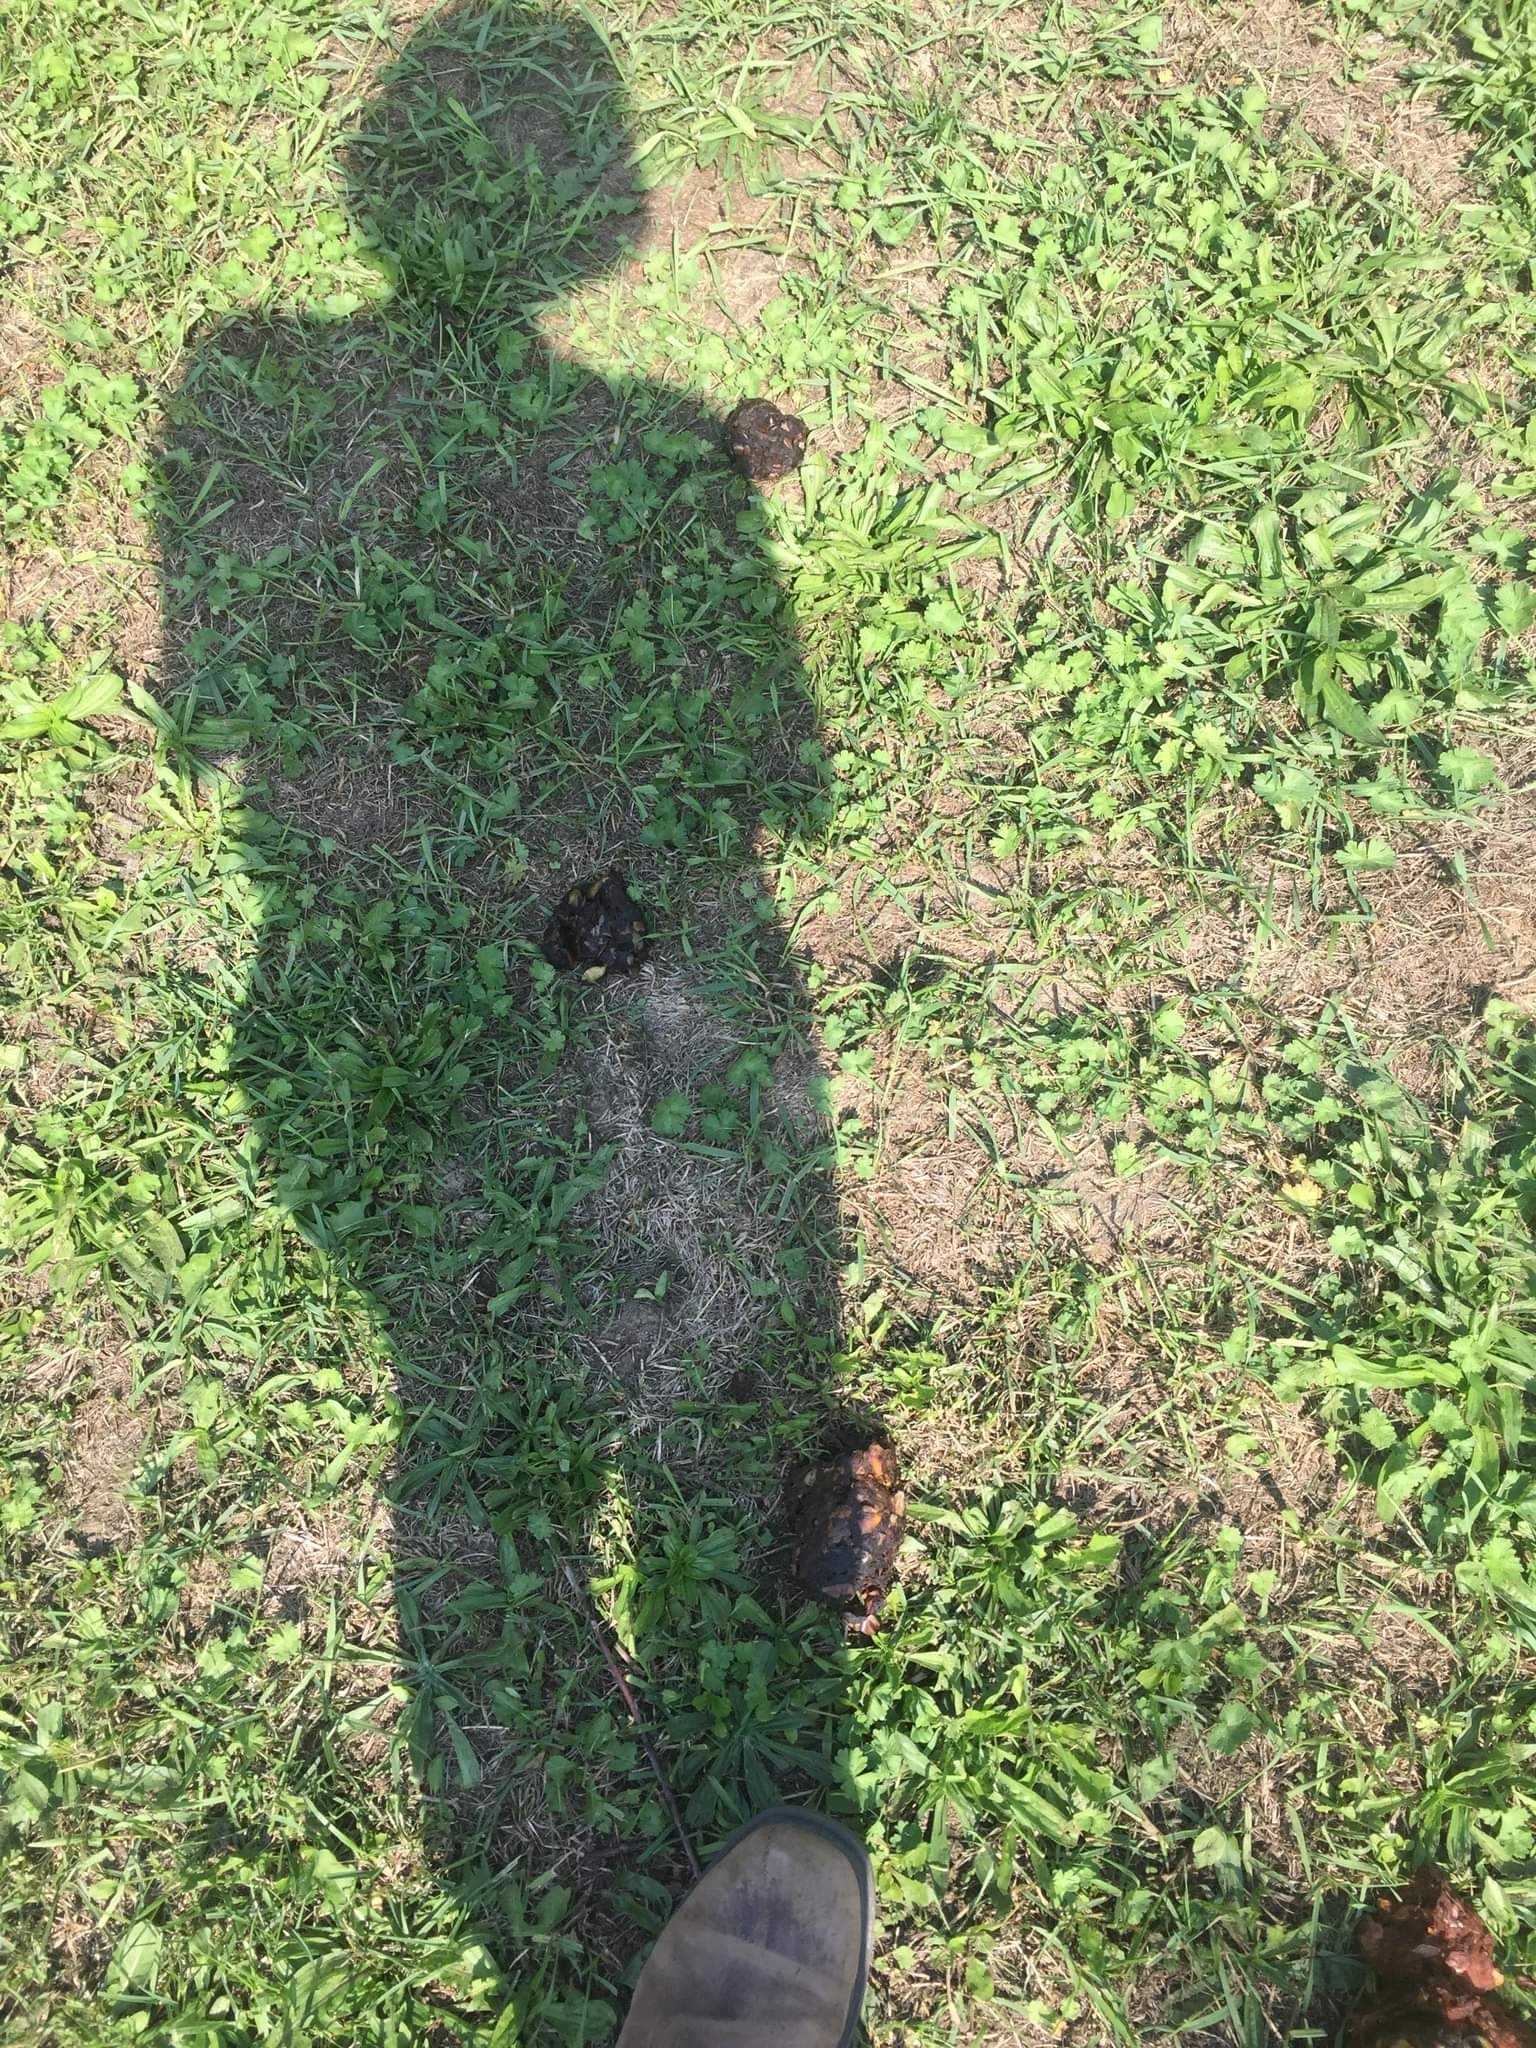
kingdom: Animalia
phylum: Chordata
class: Mammalia
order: Carnivora
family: Ursidae
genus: Ursus
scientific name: Ursus americanus
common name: American black bear
